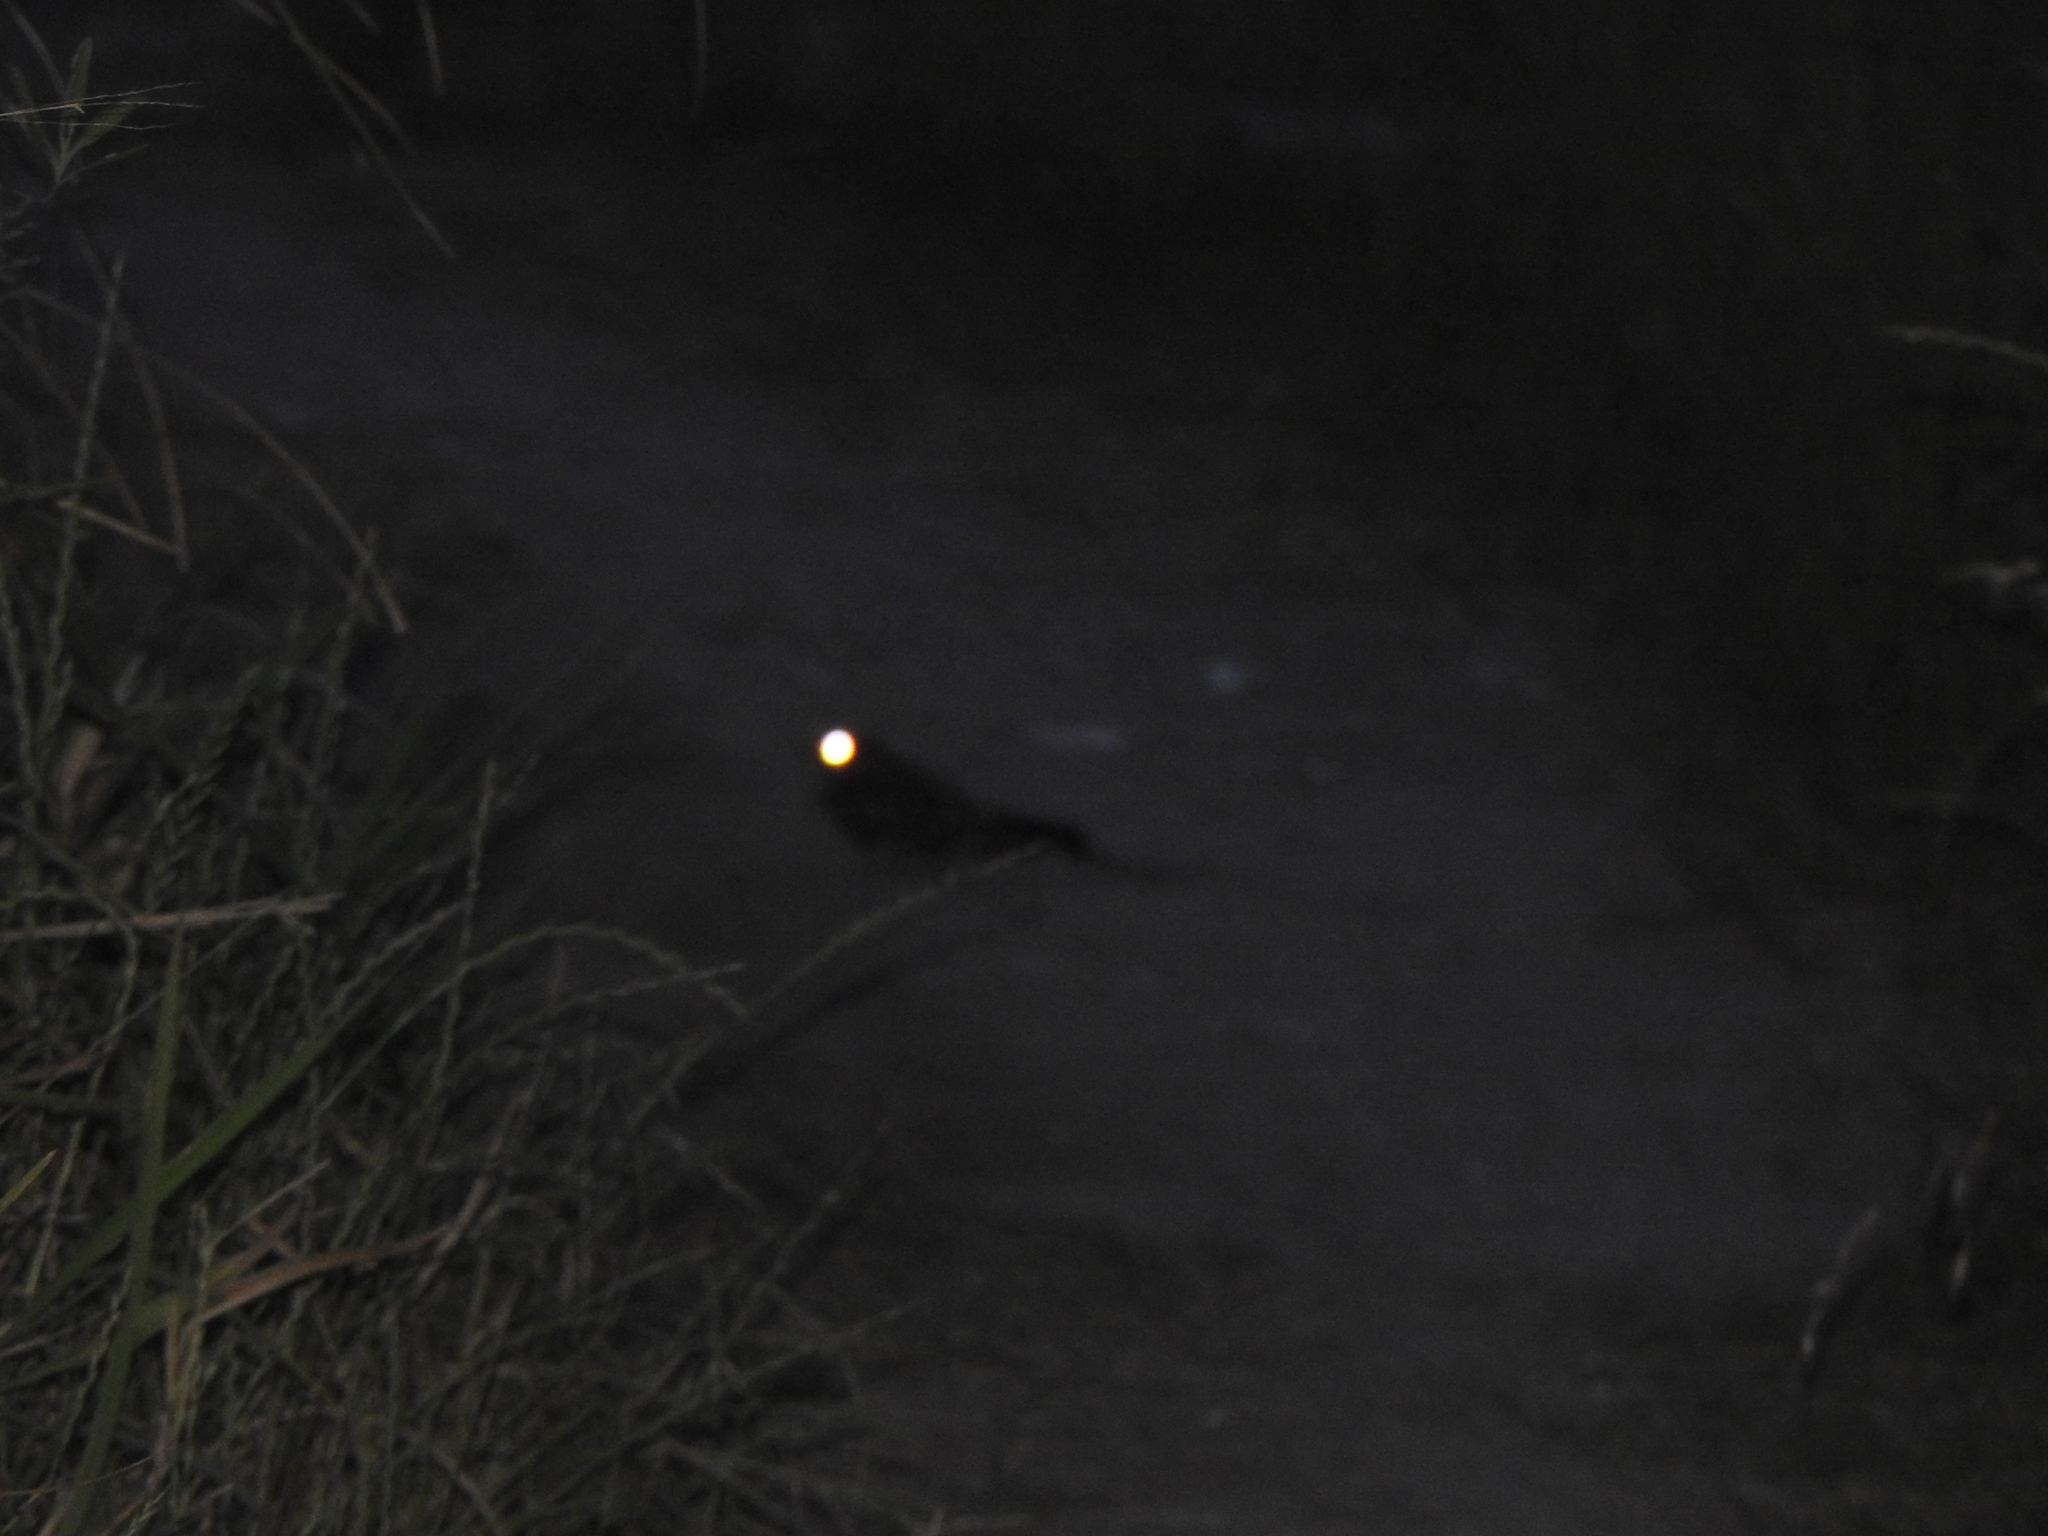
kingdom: Animalia
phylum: Chordata
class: Aves
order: Caprimulgiformes
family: Caprimulgidae
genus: Hydropsalis
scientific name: Hydropsalis torquata
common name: Scissor-tailed nightjar
